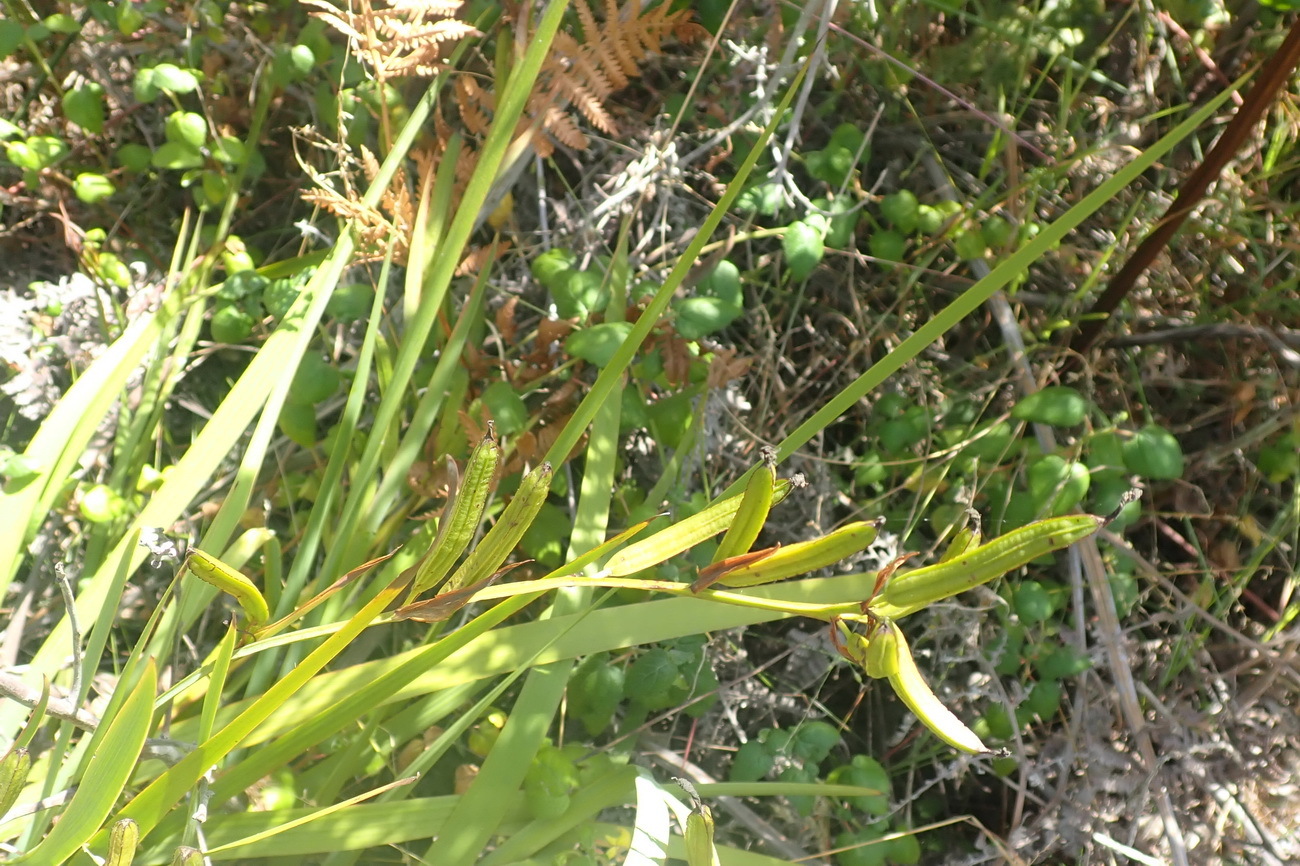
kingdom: Plantae
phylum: Tracheophyta
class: Liliopsida
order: Asparagales
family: Iridaceae
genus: Aristea
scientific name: Aristea ensifolia
